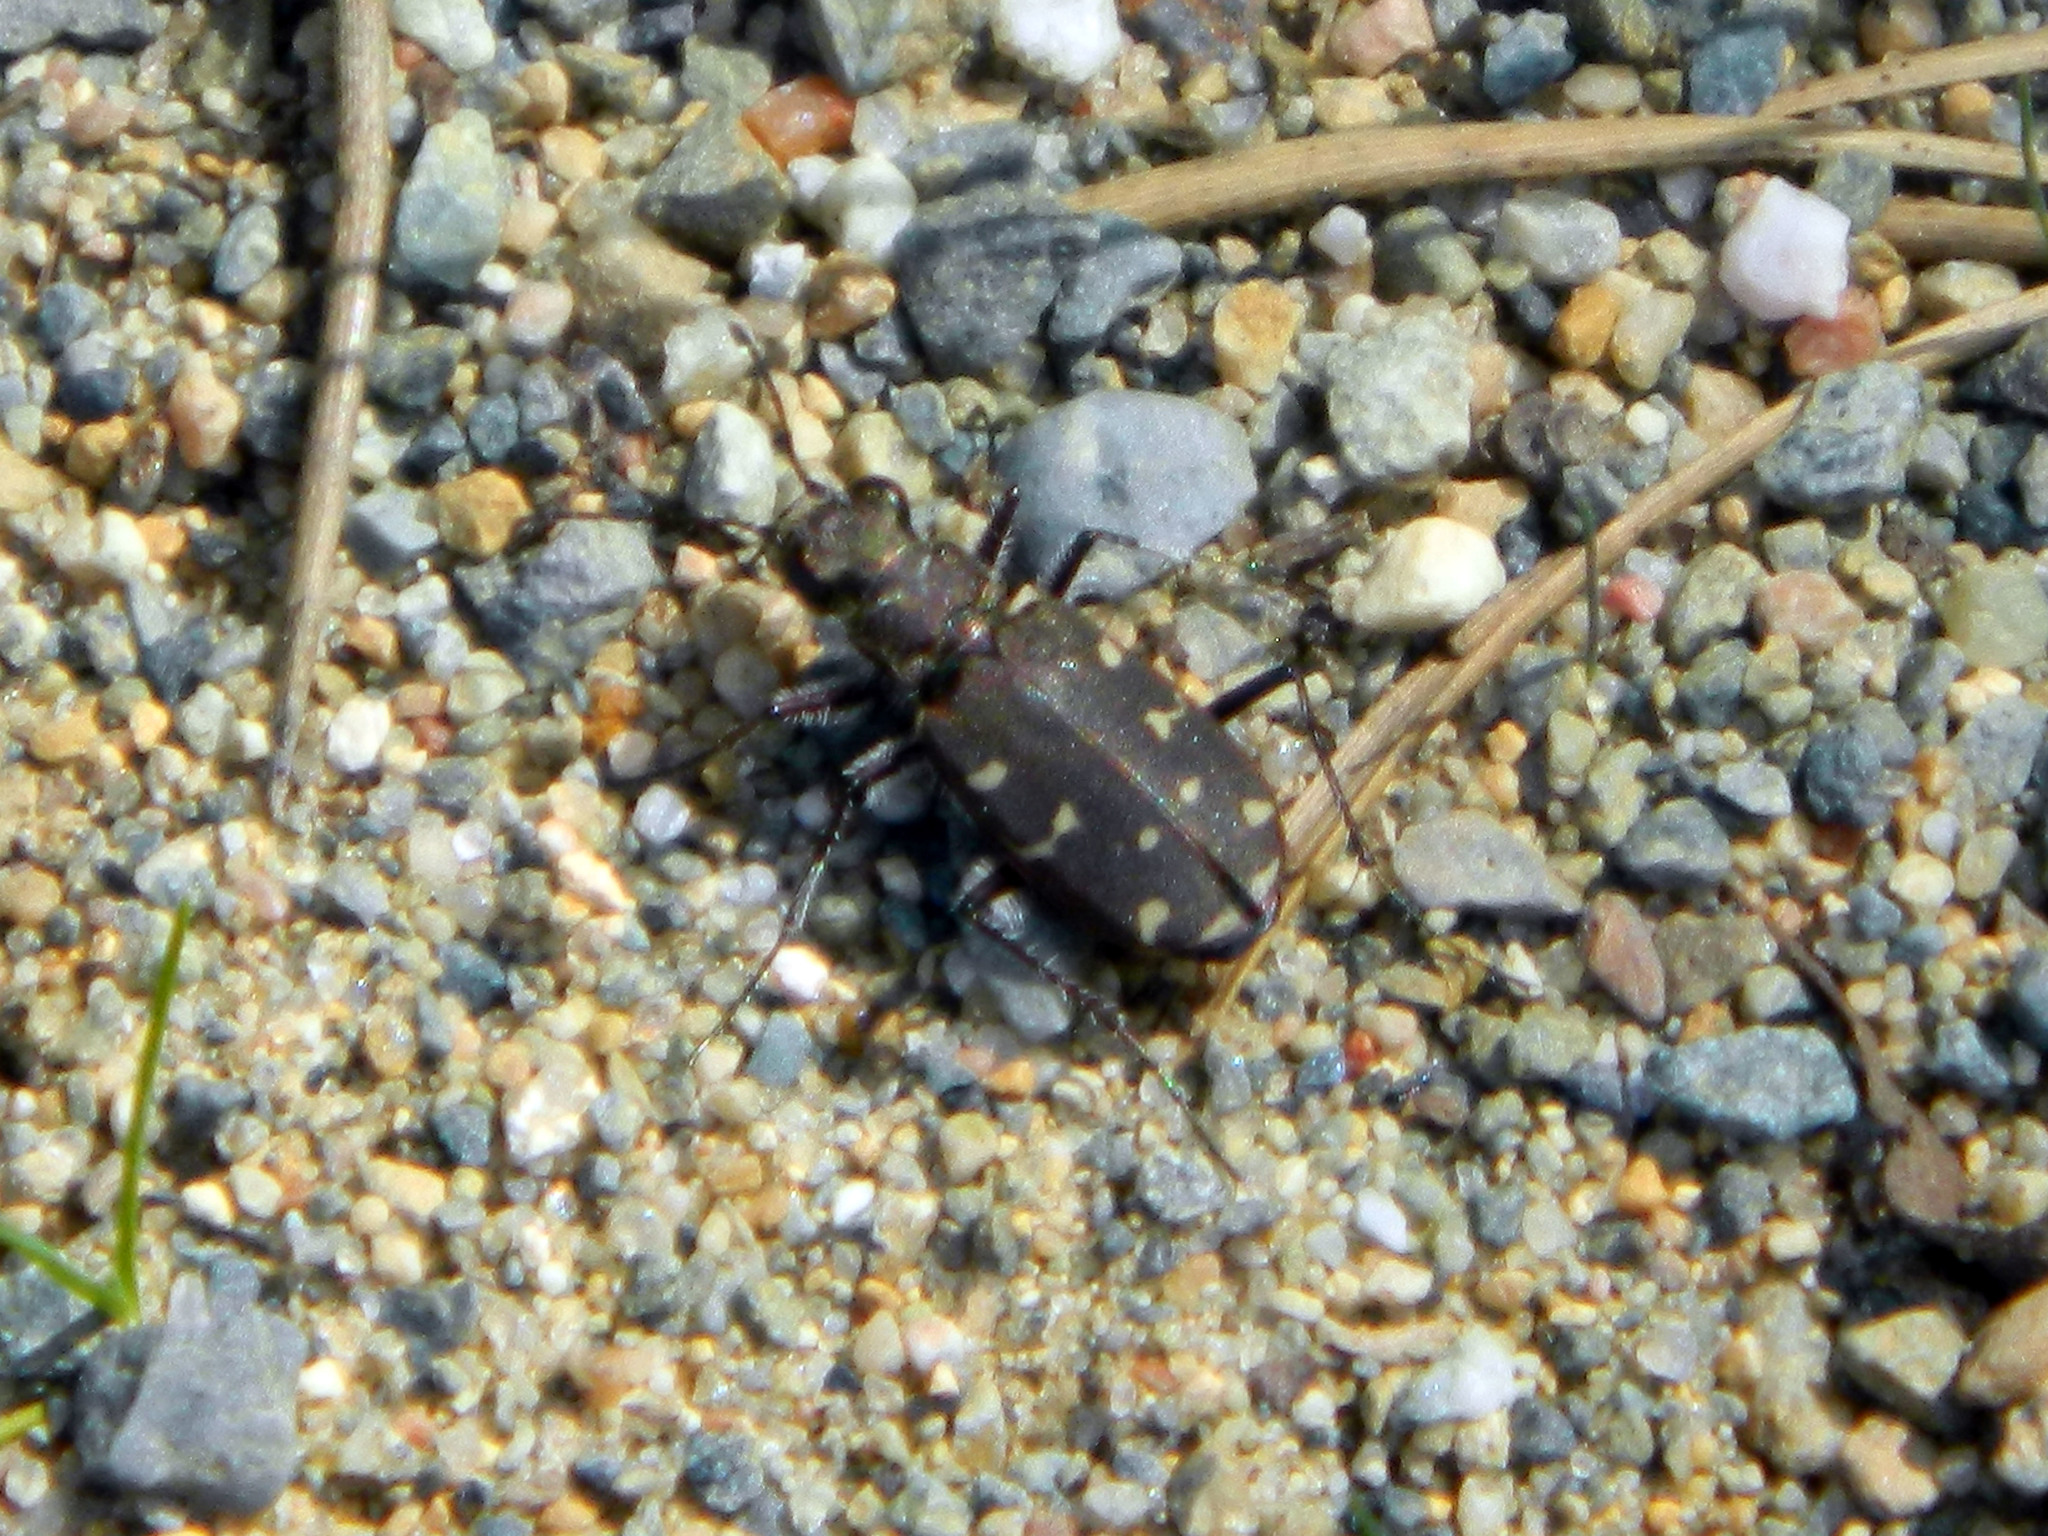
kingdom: Animalia
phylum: Arthropoda
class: Insecta
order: Coleoptera
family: Carabidae
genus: Cicindela
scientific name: Cicindela duodecimguttata
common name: Twelve-spotted tiger beetle
